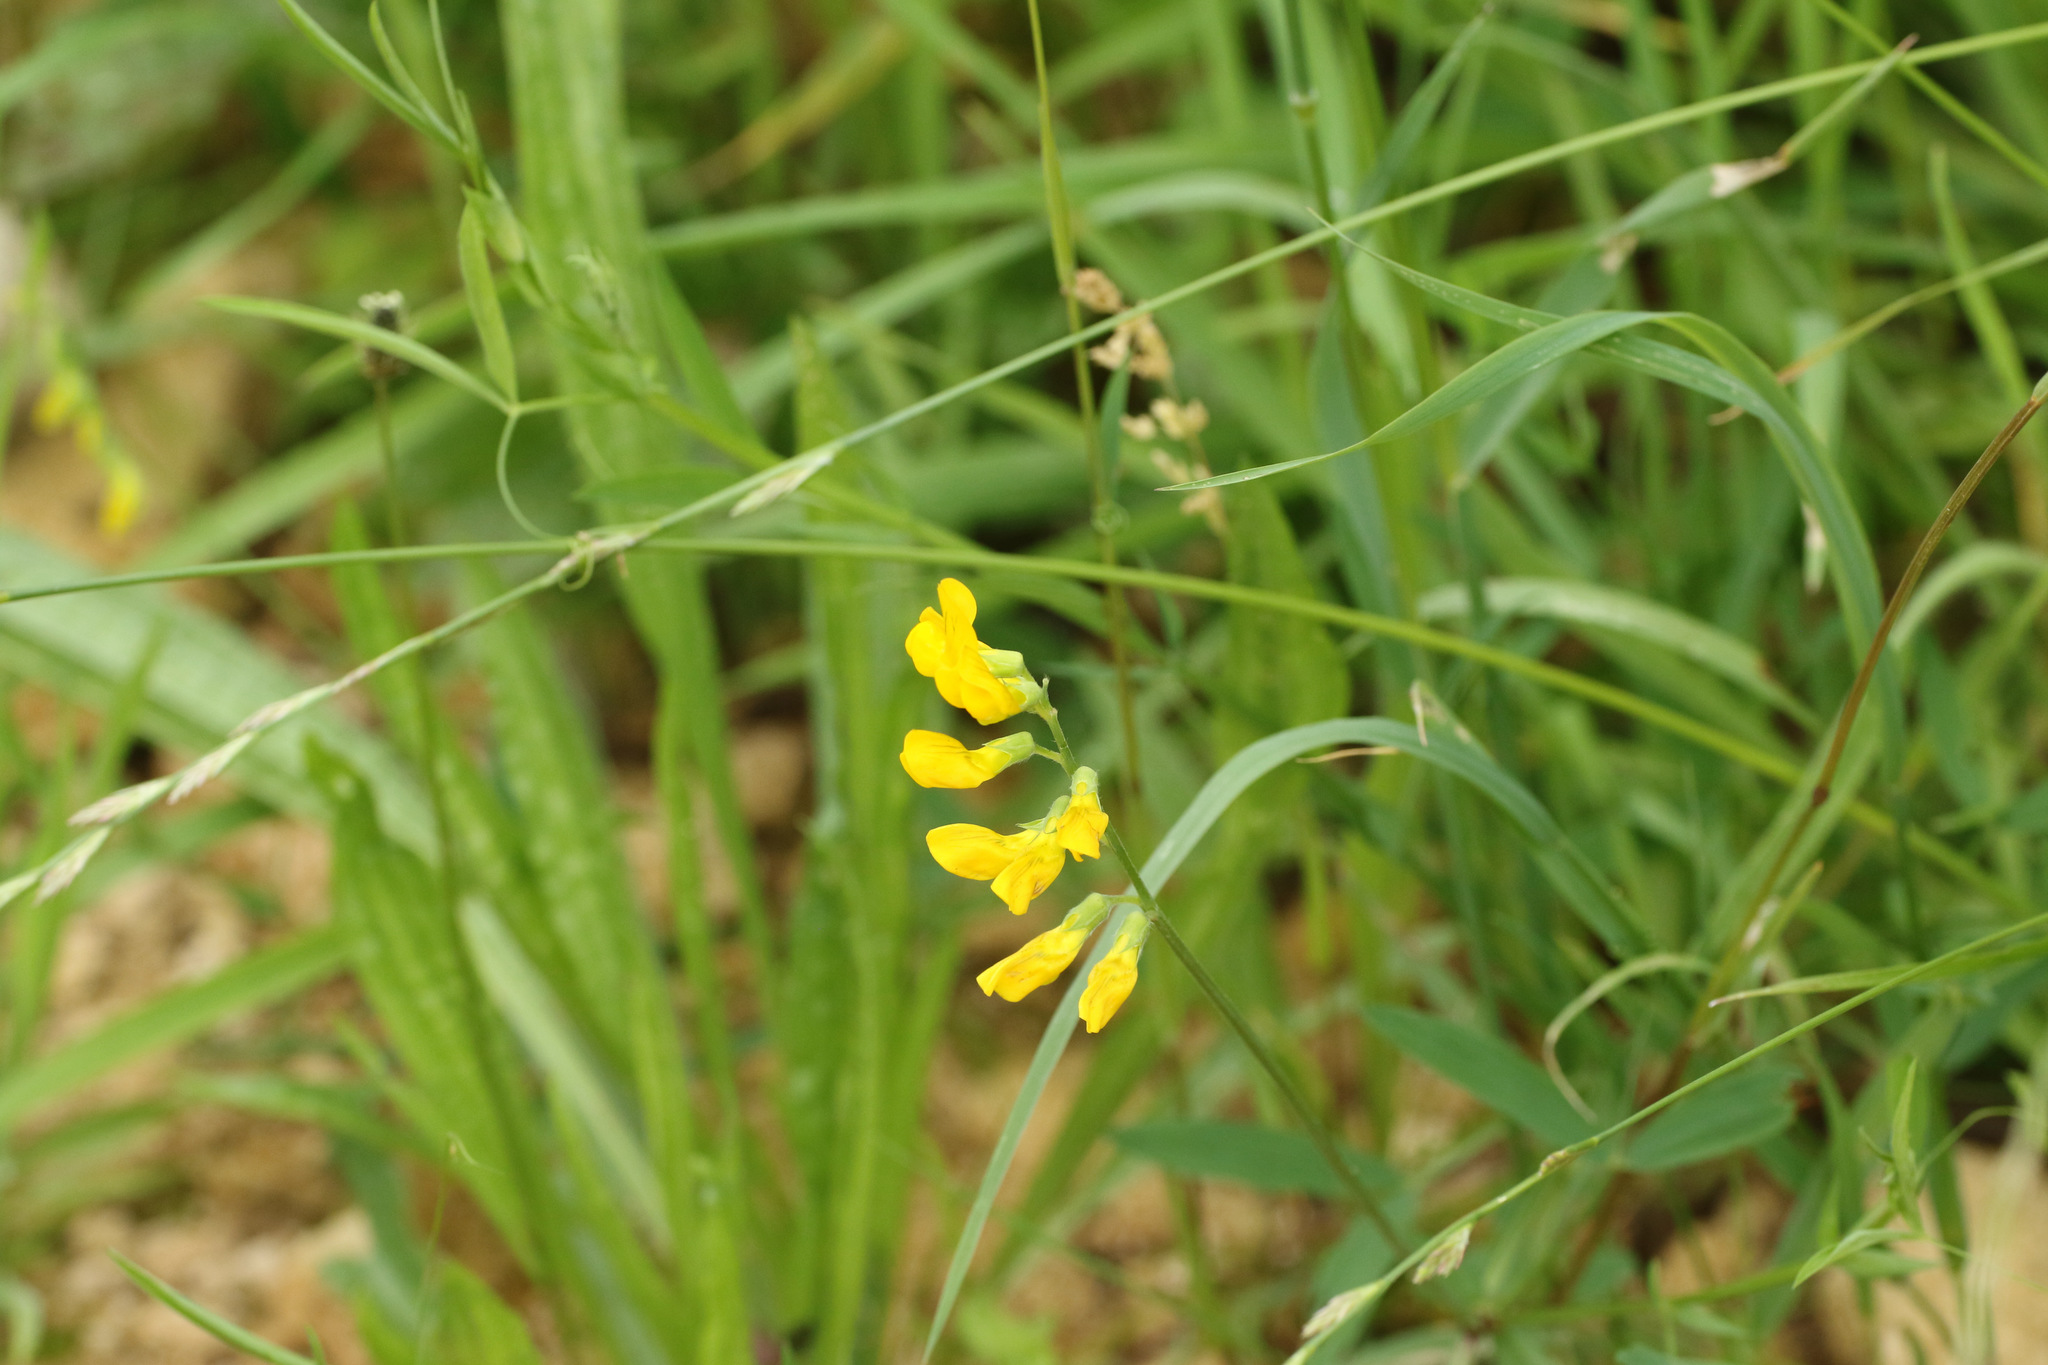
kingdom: Plantae
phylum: Tracheophyta
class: Magnoliopsida
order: Fabales
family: Fabaceae
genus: Lathyrus
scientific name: Lathyrus pratensis
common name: Meadow vetchling
